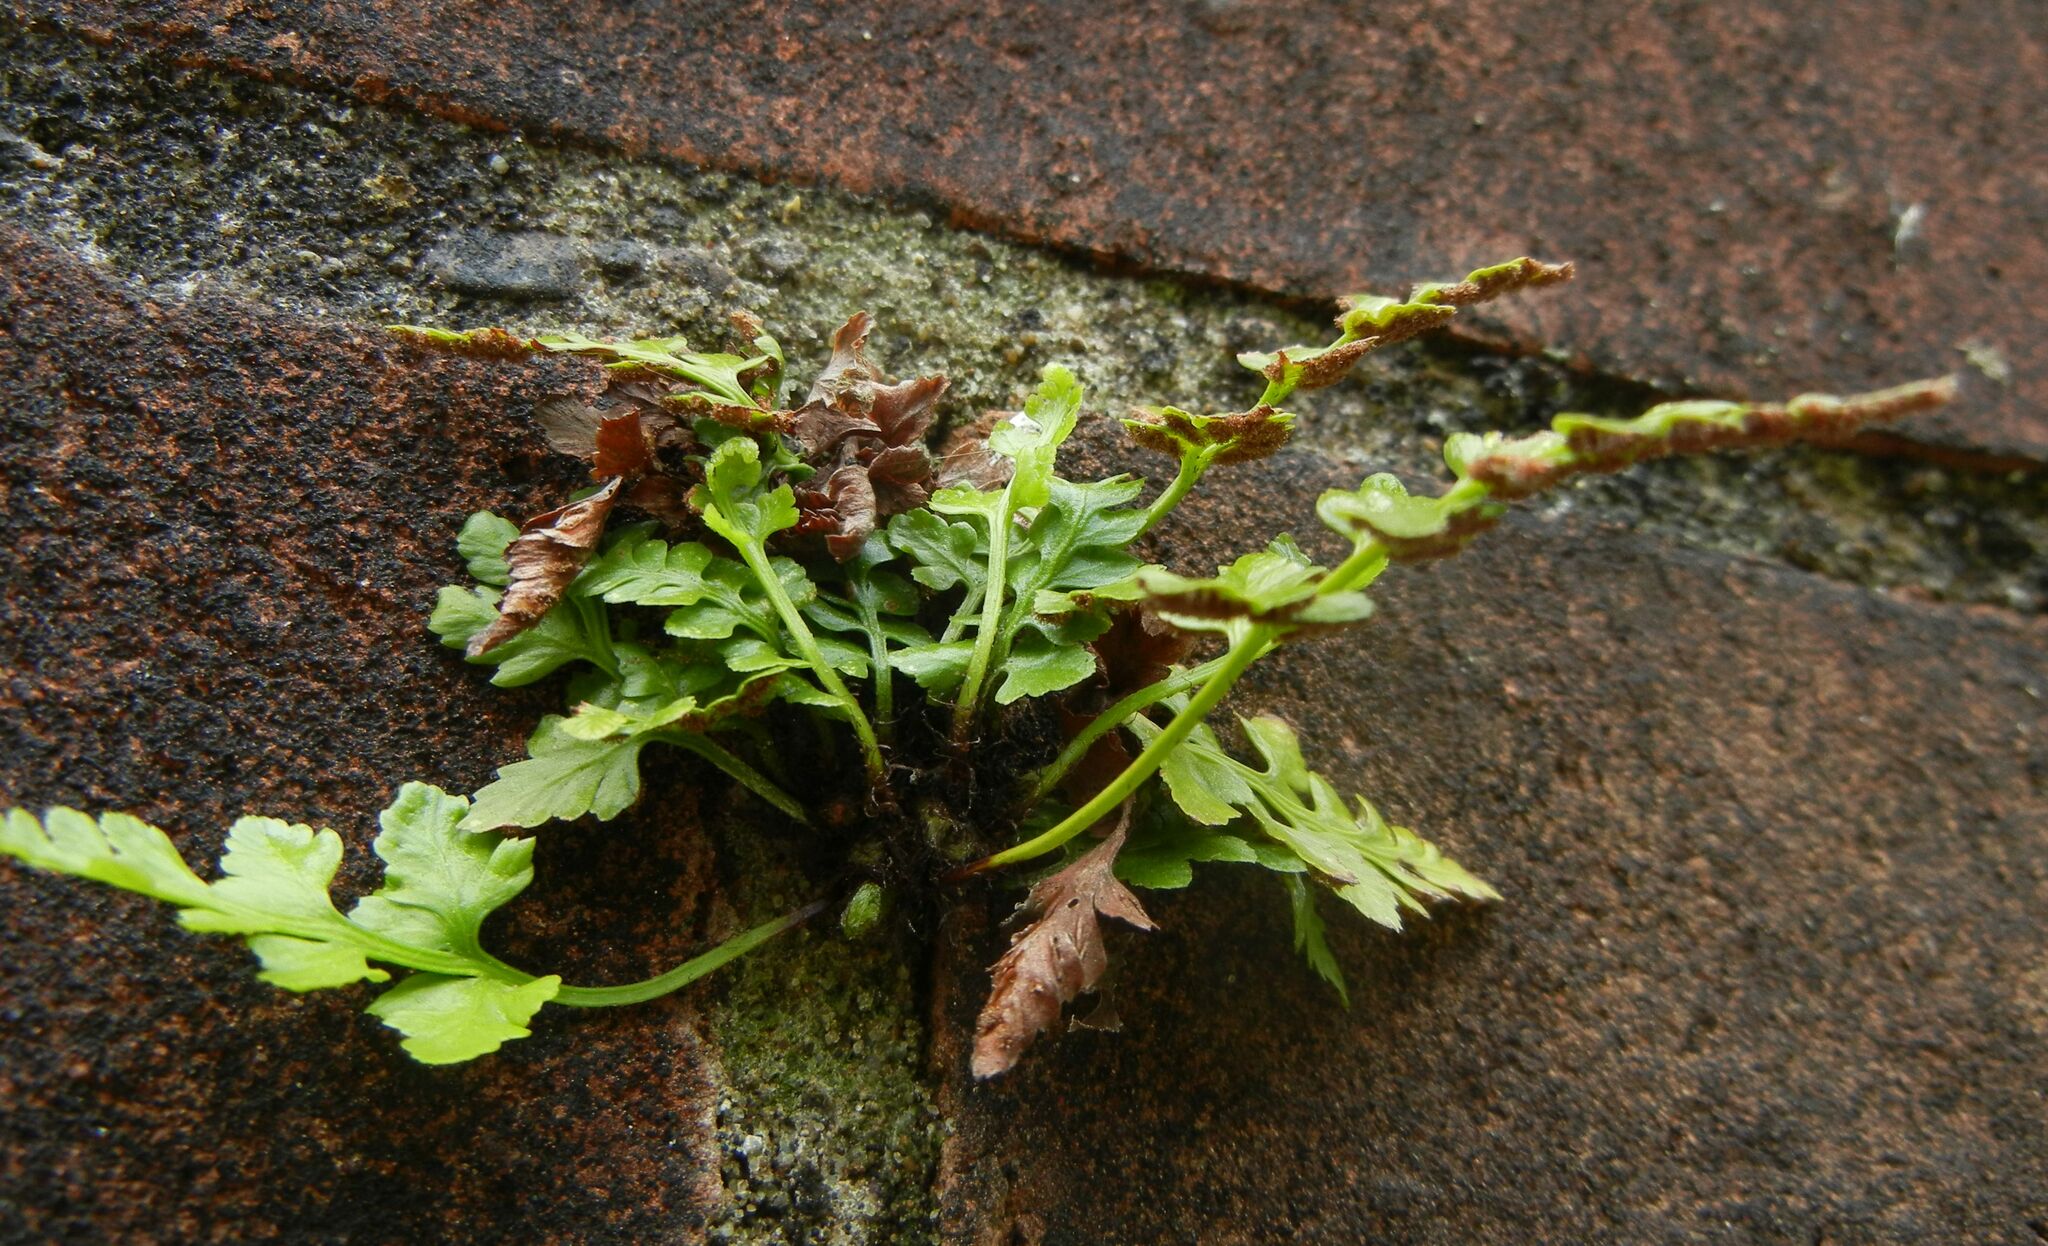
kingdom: Plantae
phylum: Tracheophyta
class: Polypodiopsida
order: Polypodiales
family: Aspleniaceae
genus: Asplenium
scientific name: Asplenium adiantum-nigrum
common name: Black spleenwort
